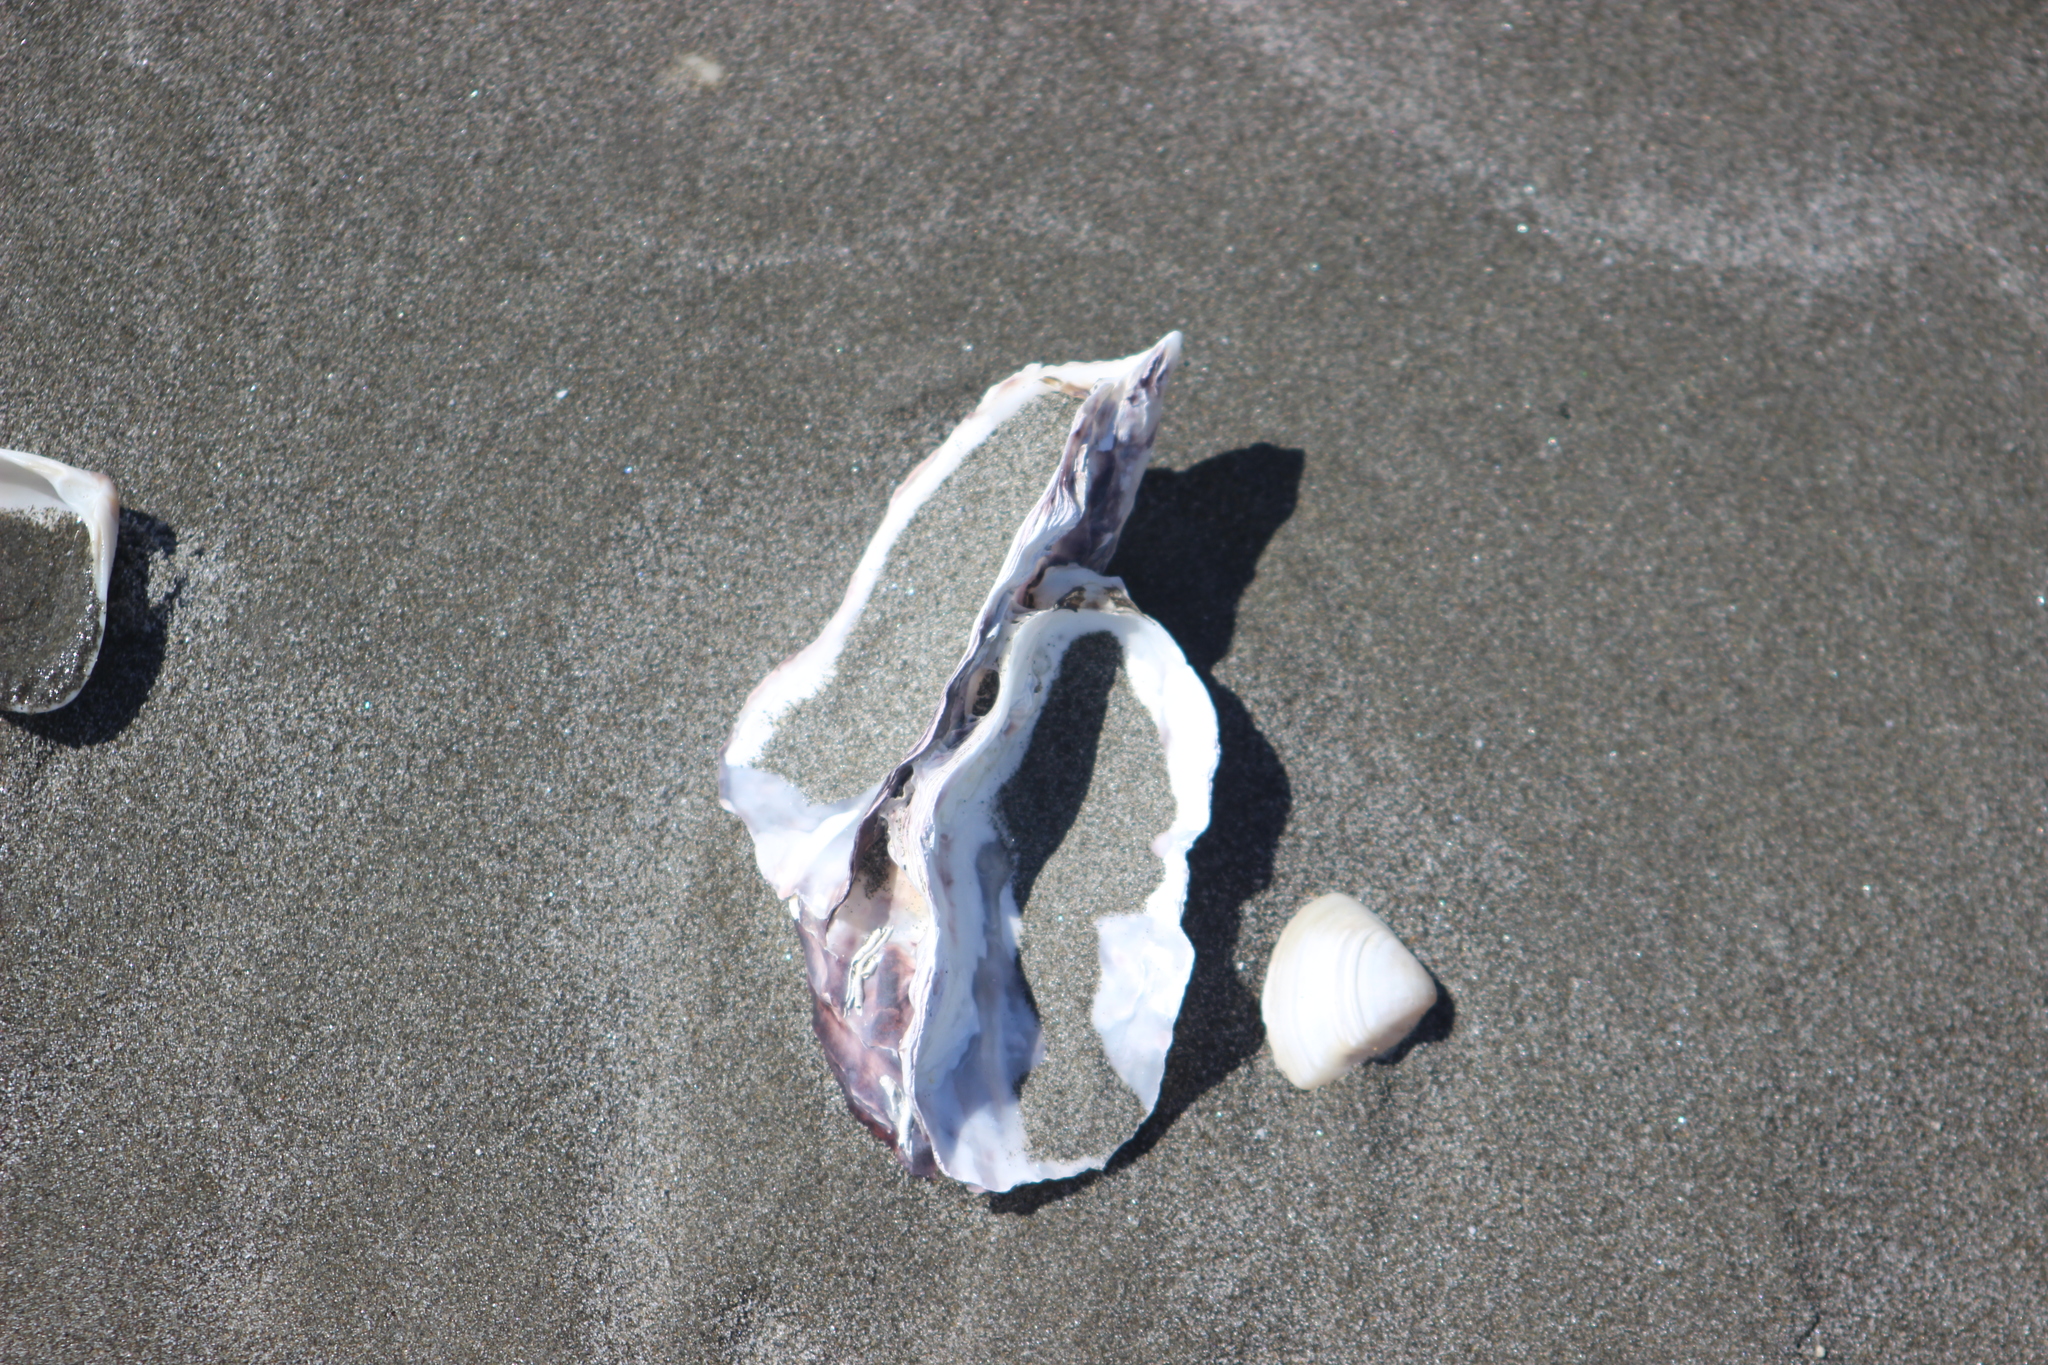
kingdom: Animalia
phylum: Mollusca
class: Bivalvia
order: Ostreida
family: Ostreidae
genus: Magallana
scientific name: Magallana gigas
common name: Pacific oyster
